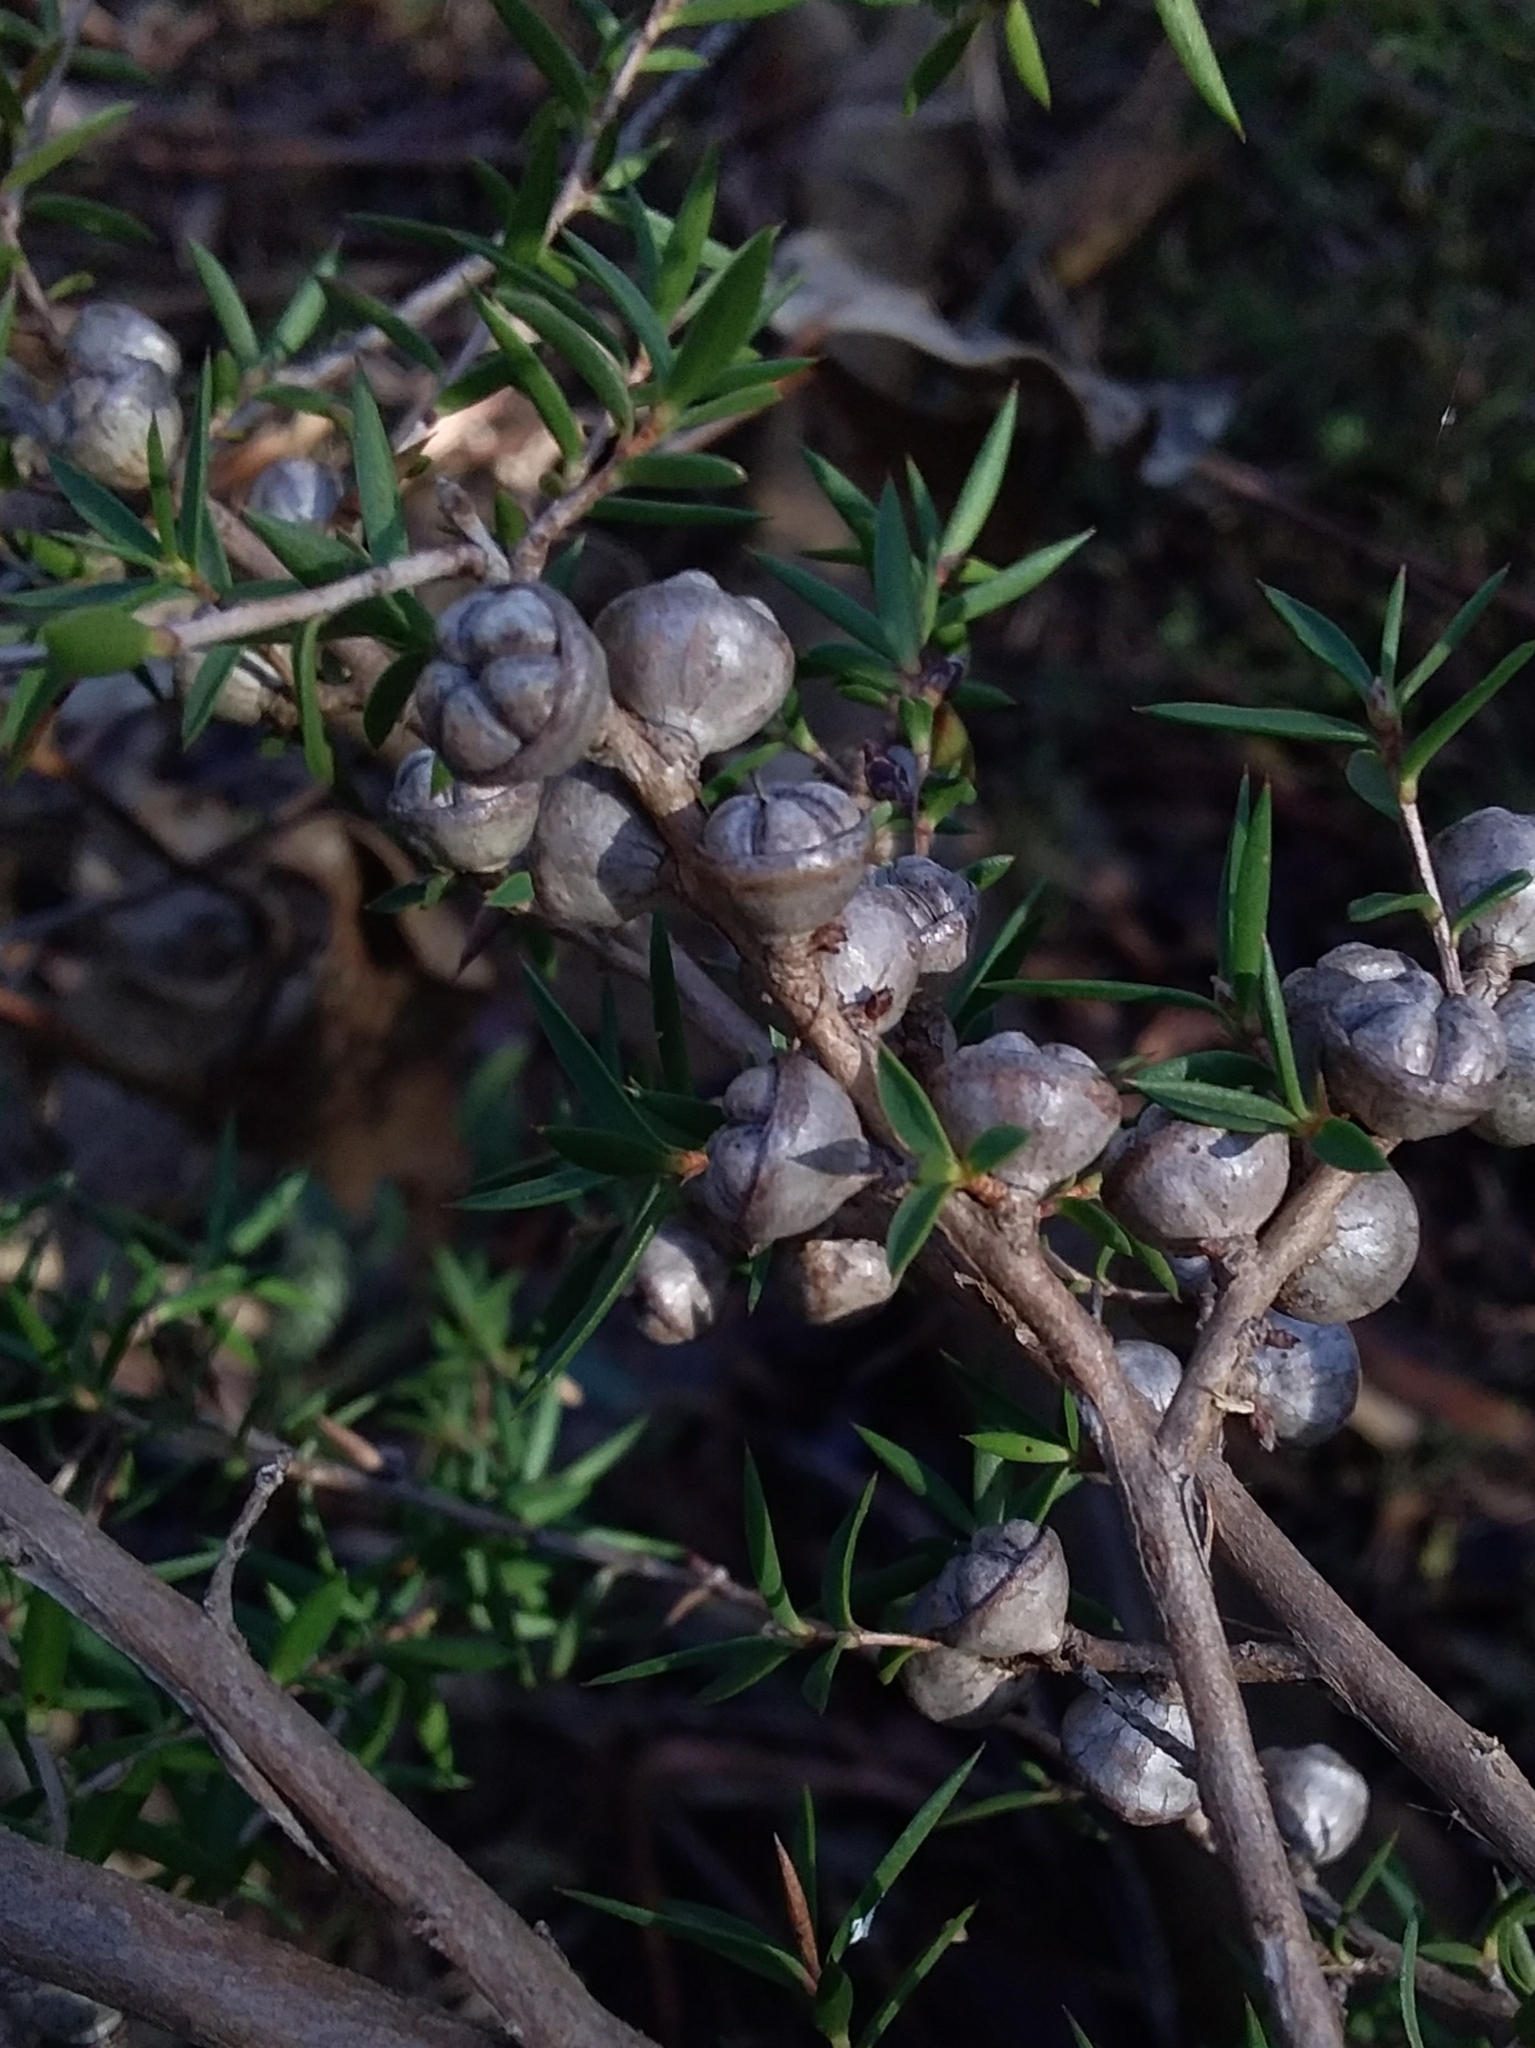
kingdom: Plantae
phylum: Tracheophyta
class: Magnoliopsida
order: Myrtales
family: Myrtaceae
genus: Leptospermum
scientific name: Leptospermum continentale
